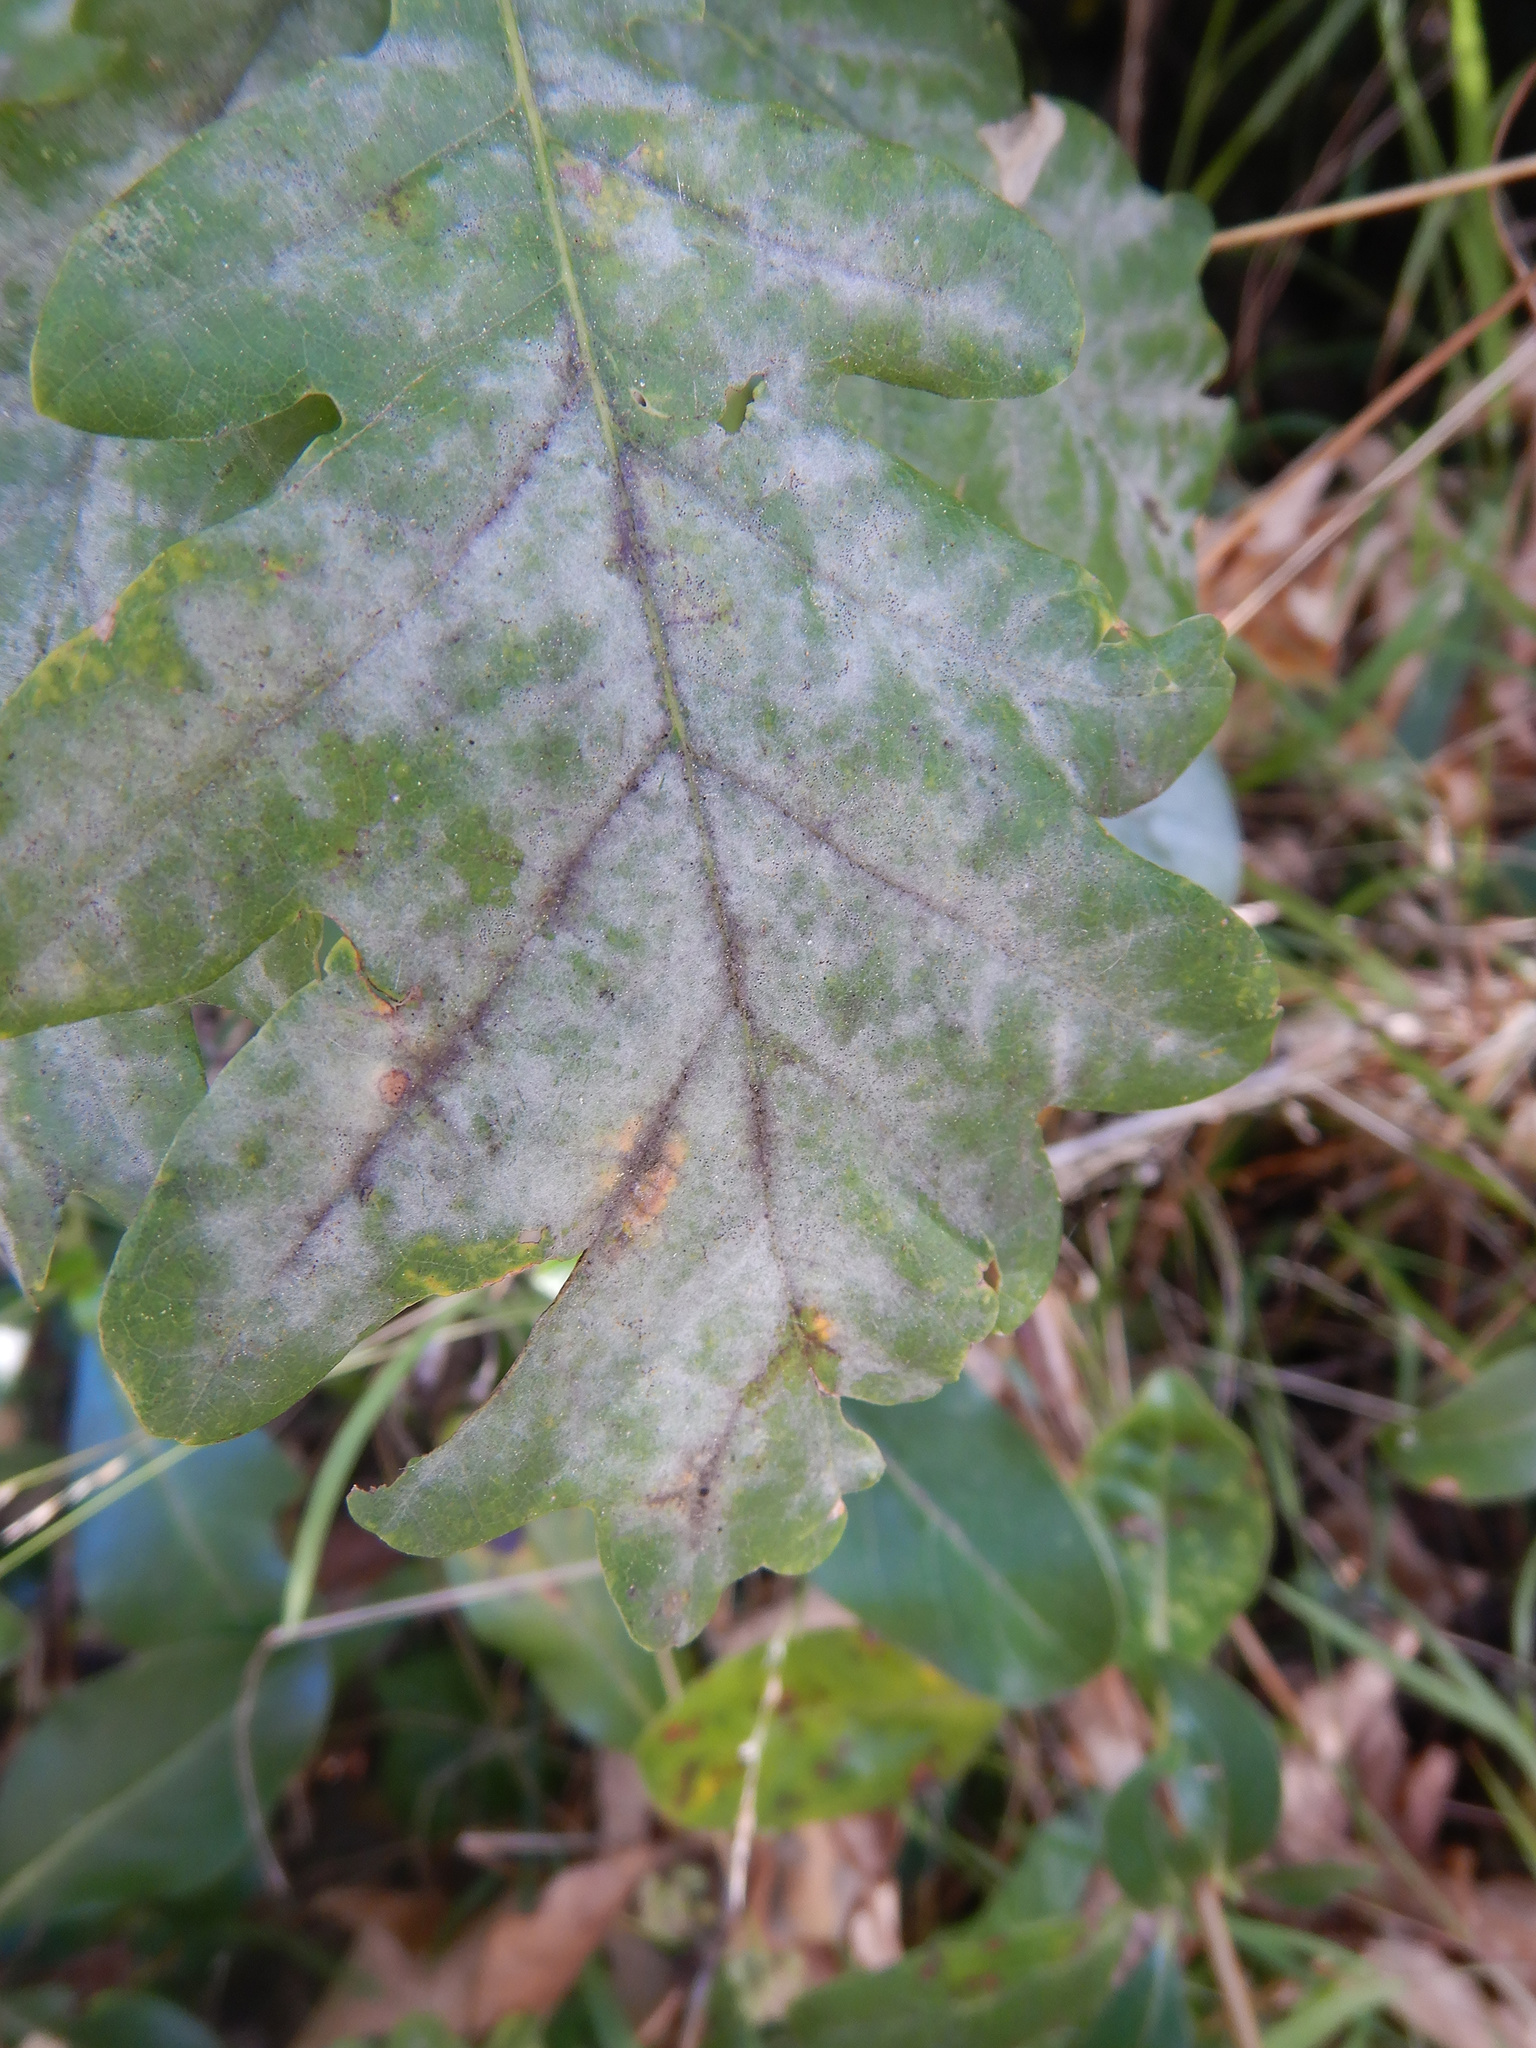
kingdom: Fungi
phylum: Ascomycota
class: Leotiomycetes
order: Helotiales
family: Erysiphaceae
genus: Erysiphe
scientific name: Erysiphe alphitoides
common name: Oak mildew
